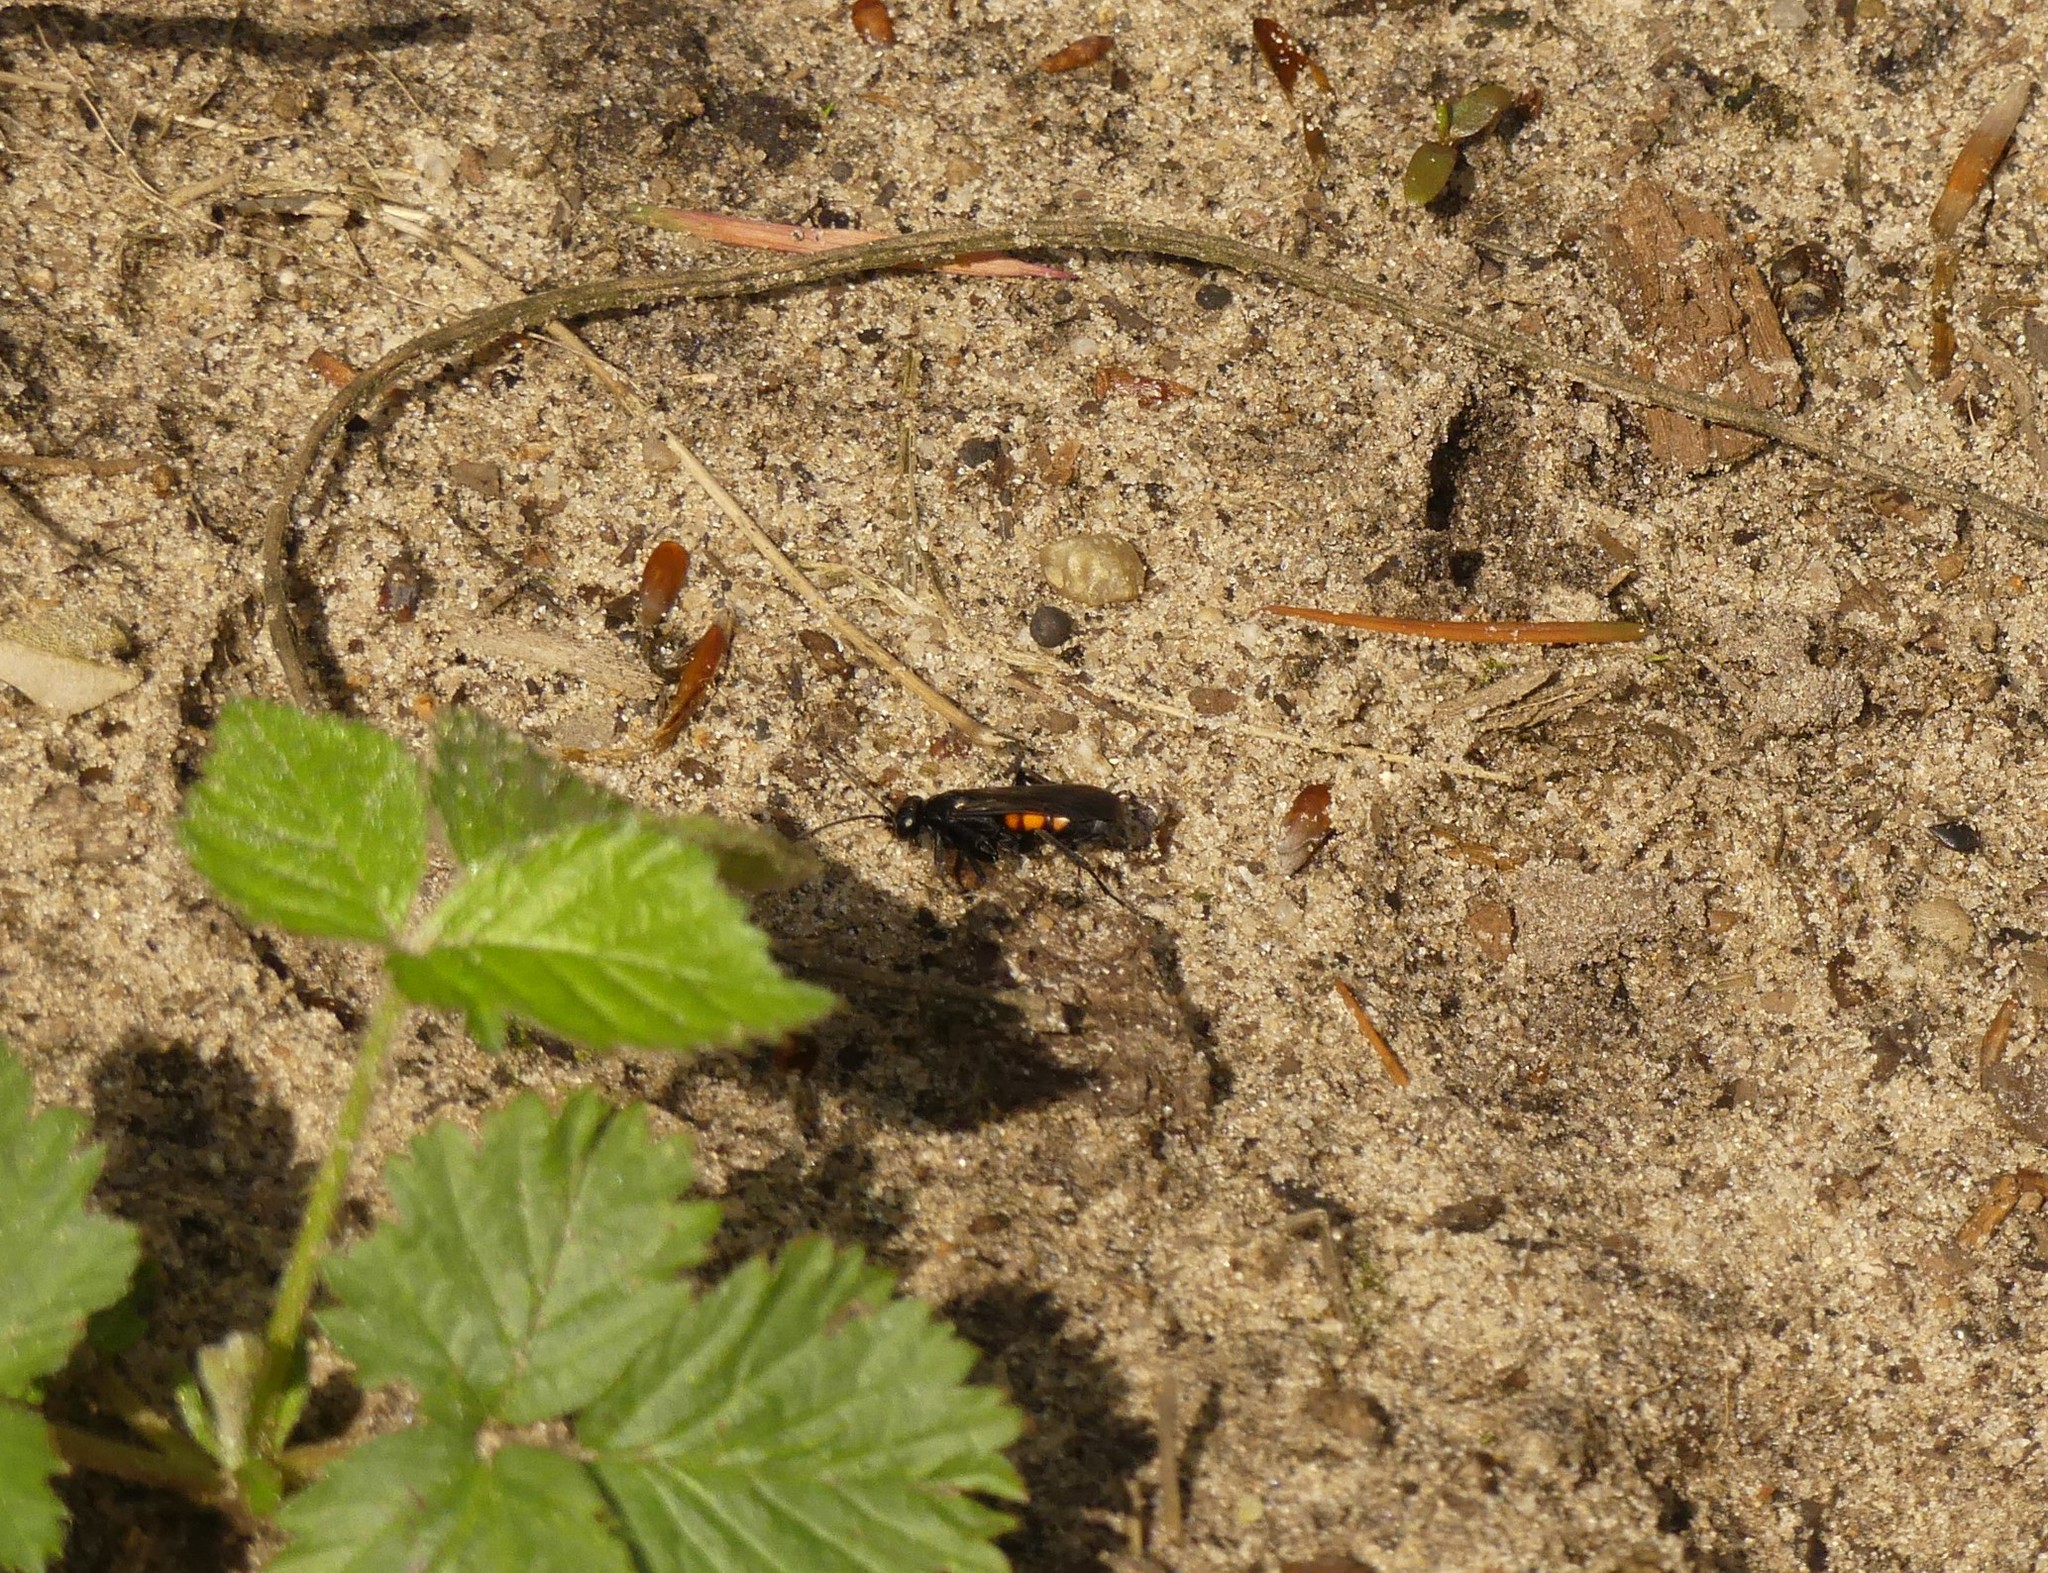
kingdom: Animalia
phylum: Arthropoda
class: Insecta
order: Hymenoptera
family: Pompilidae
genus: Anoplius
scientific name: Anoplius viaticus
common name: Black banded spider wasp
